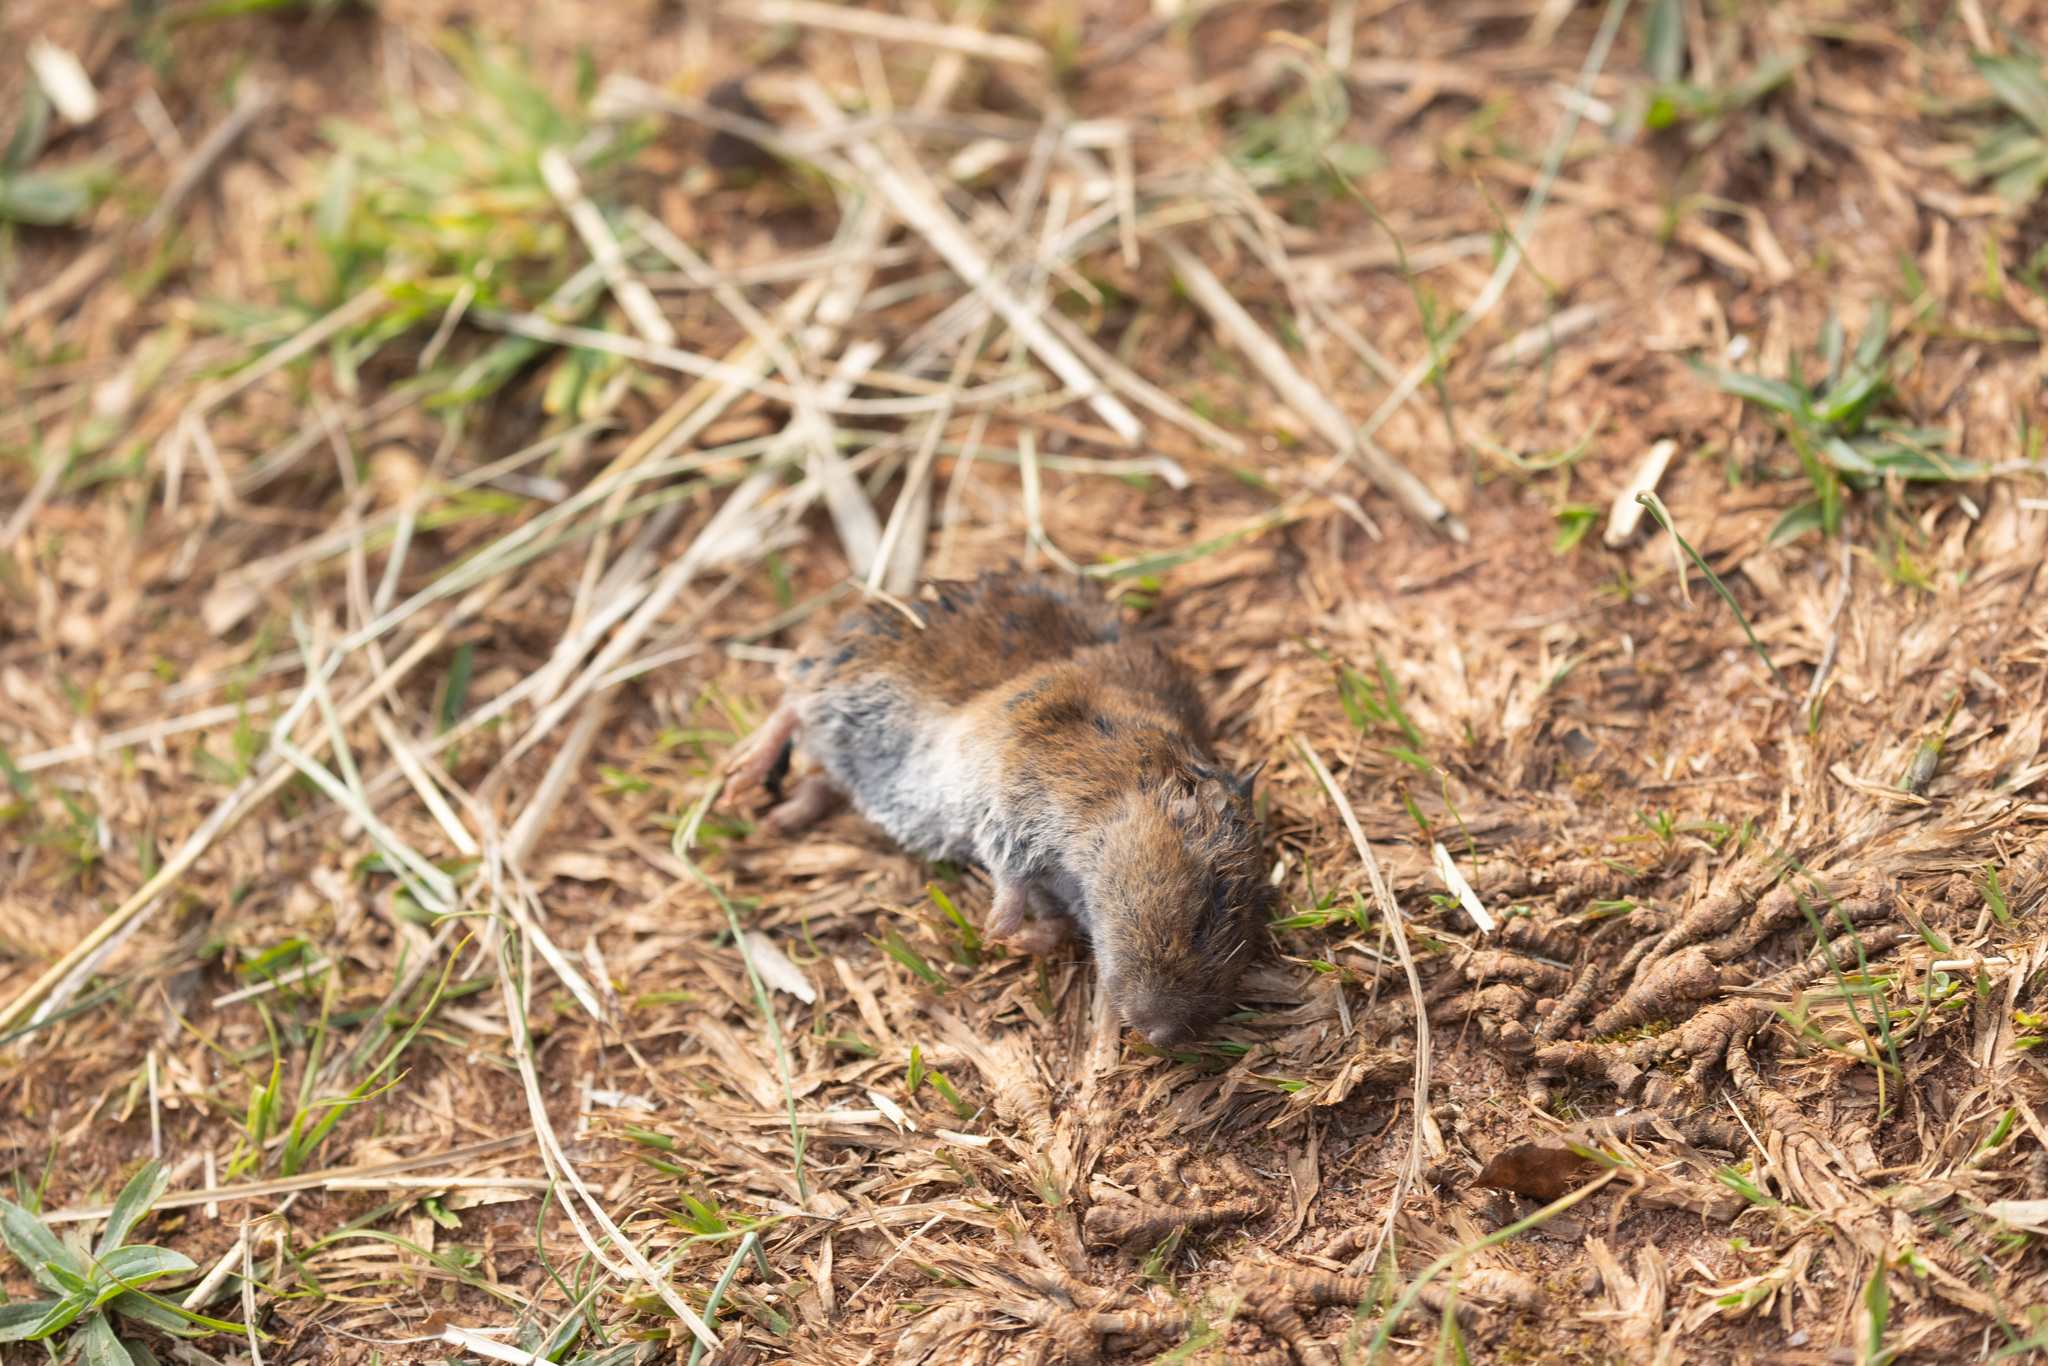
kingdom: Animalia
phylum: Chordata
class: Mammalia
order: Rodentia
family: Cricetidae
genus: Microtus
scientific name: Microtus pinetorum
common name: Woodland vole
